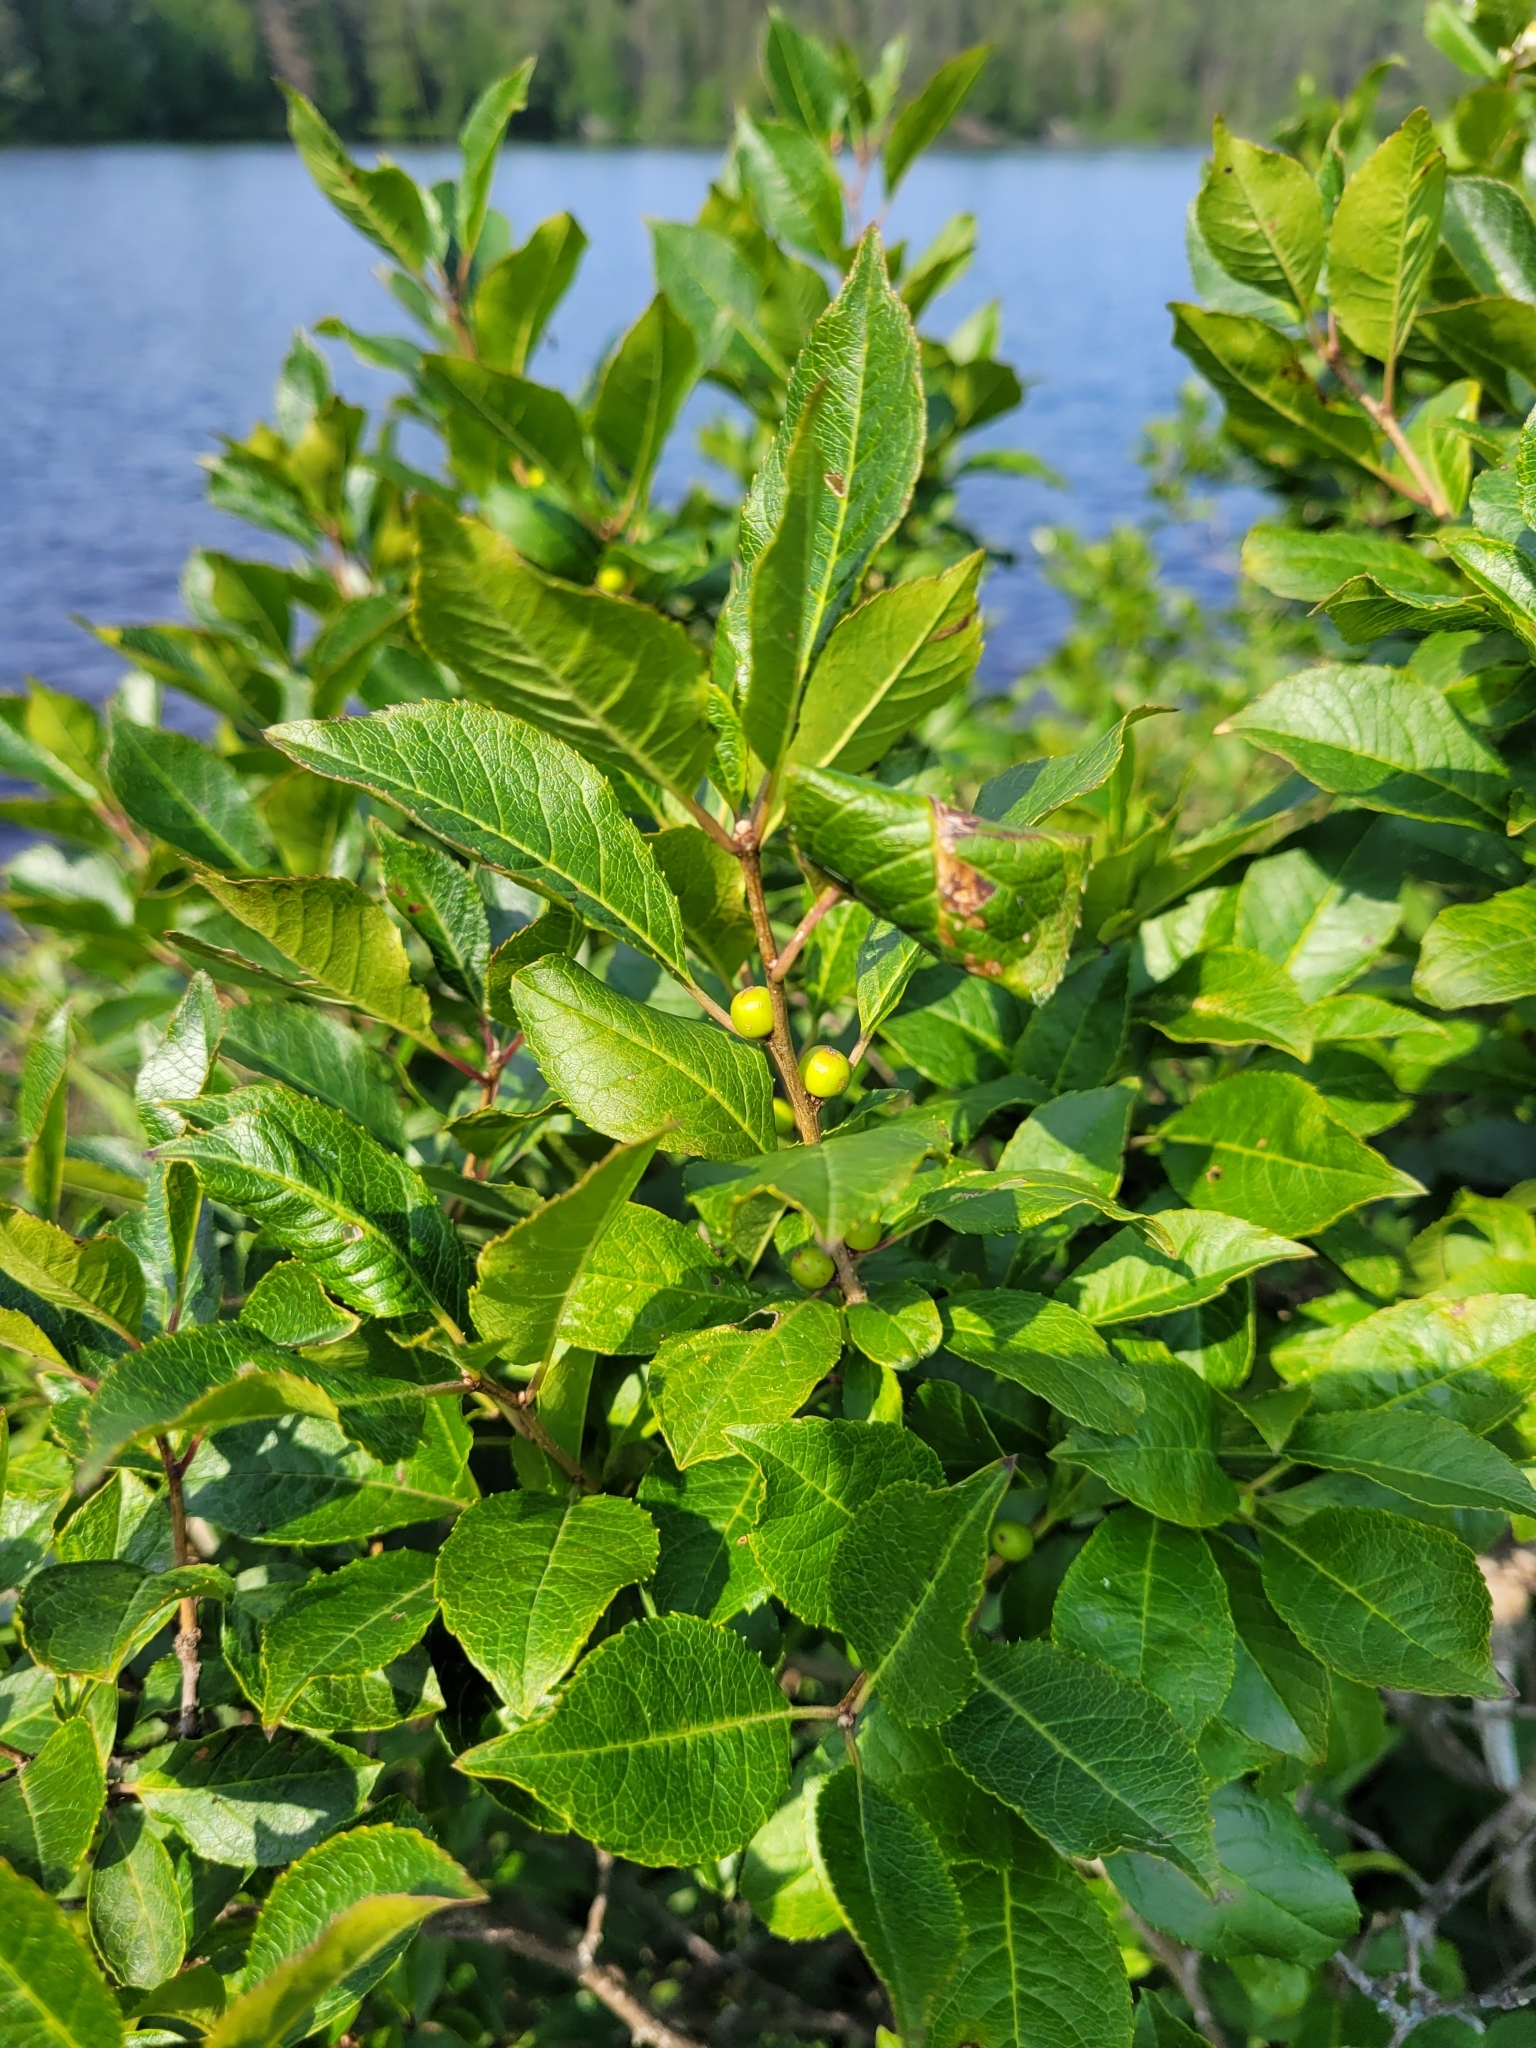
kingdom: Plantae
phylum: Tracheophyta
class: Magnoliopsida
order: Aquifoliales
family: Aquifoliaceae
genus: Ilex
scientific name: Ilex verticillata
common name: Virginia winterberry
